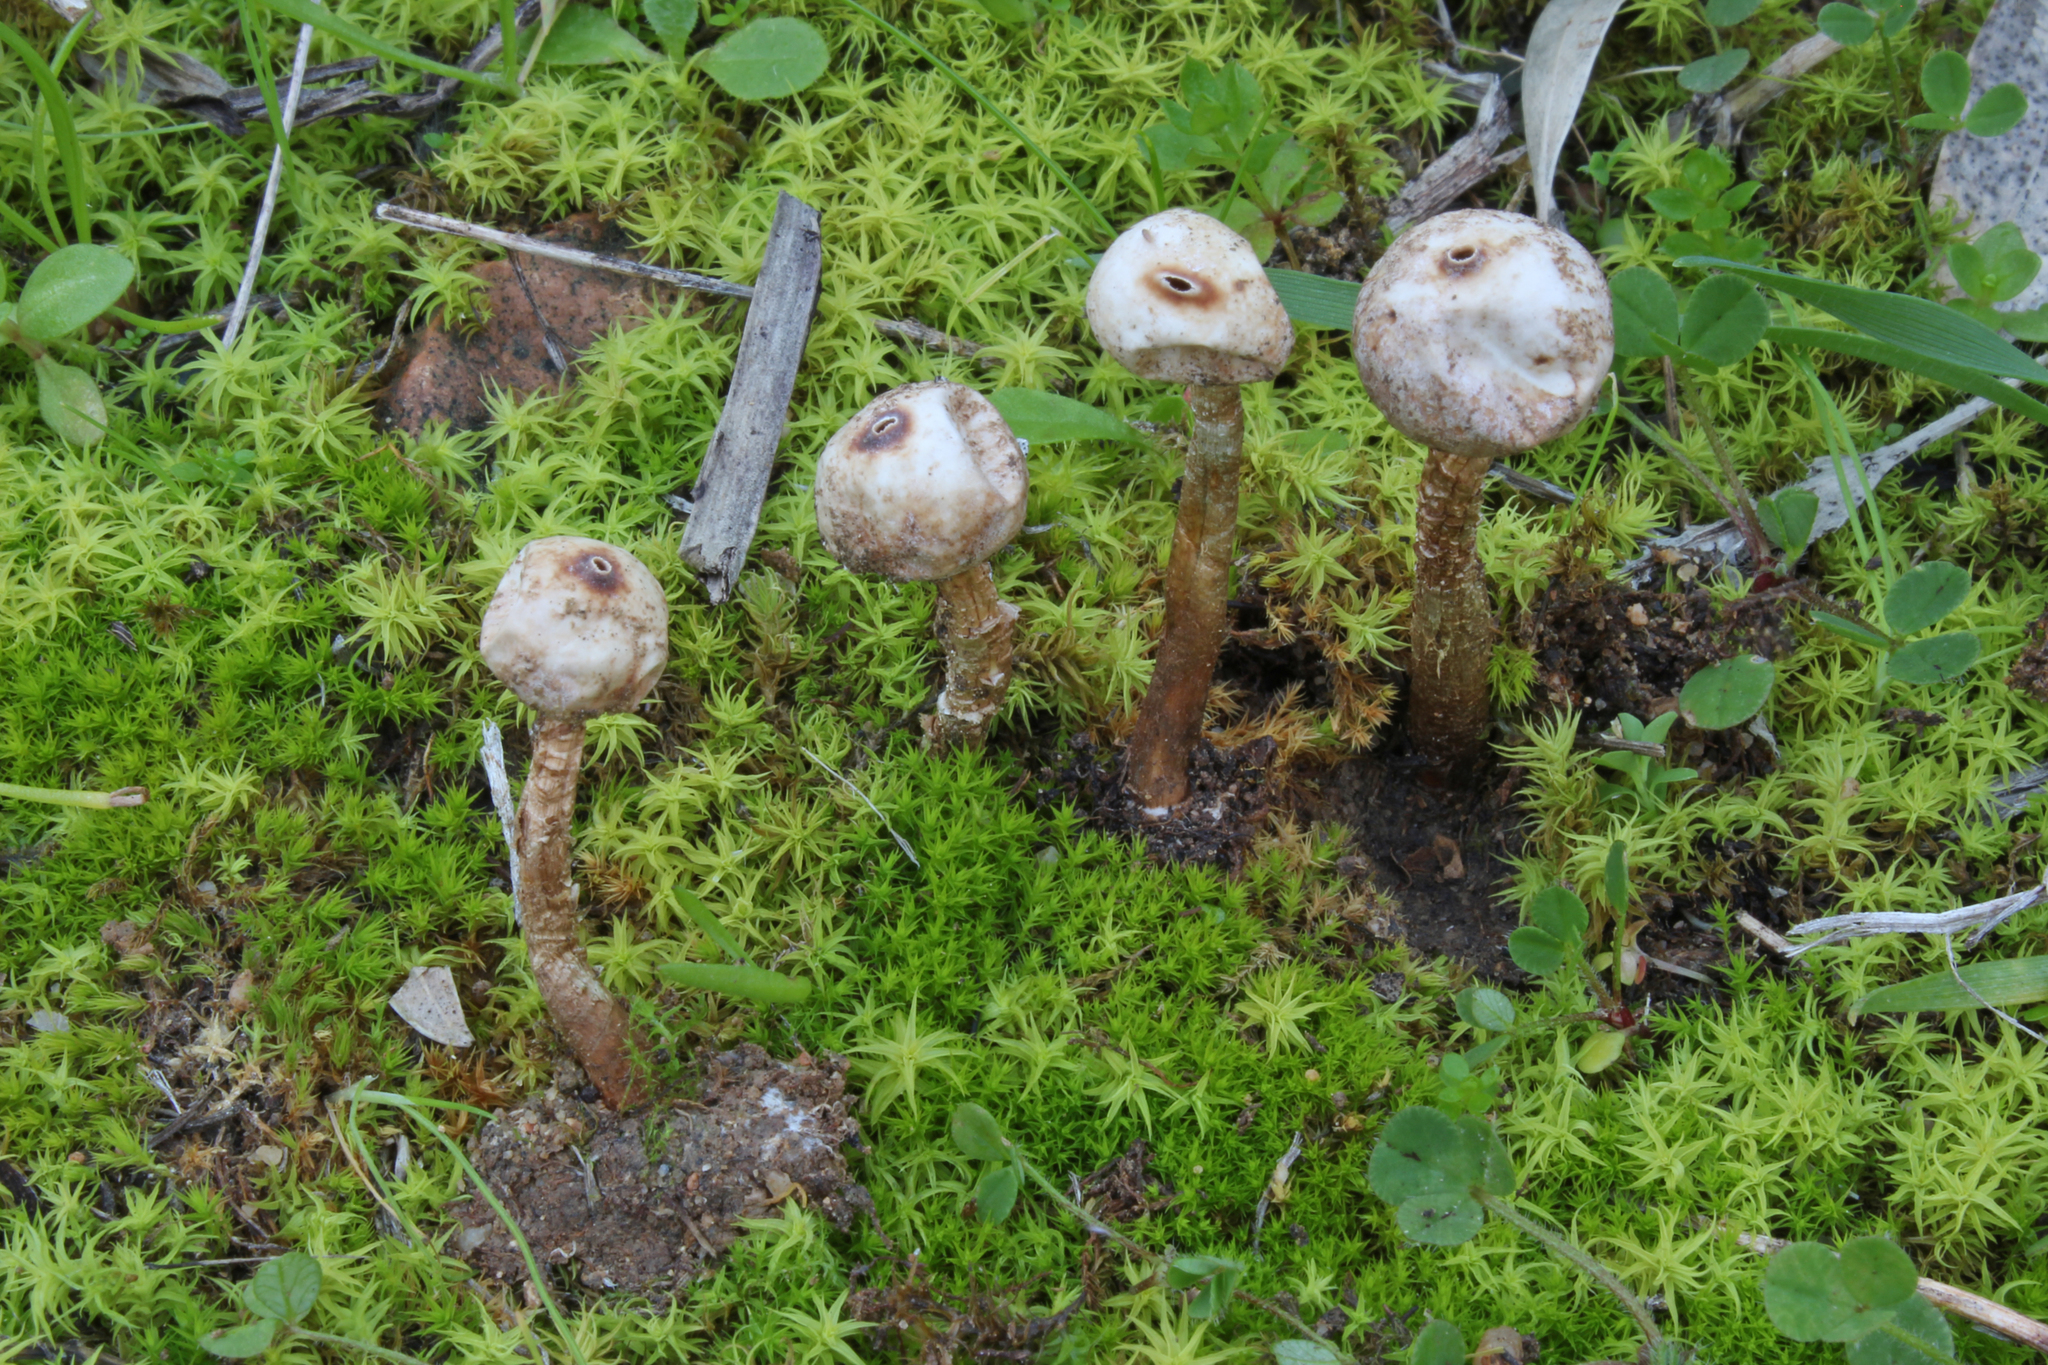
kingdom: Fungi
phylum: Basidiomycota
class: Agaricomycetes
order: Agaricales
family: Agaricaceae
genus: Tulostoma
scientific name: Tulostoma brumale
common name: Winter stalk puffball
